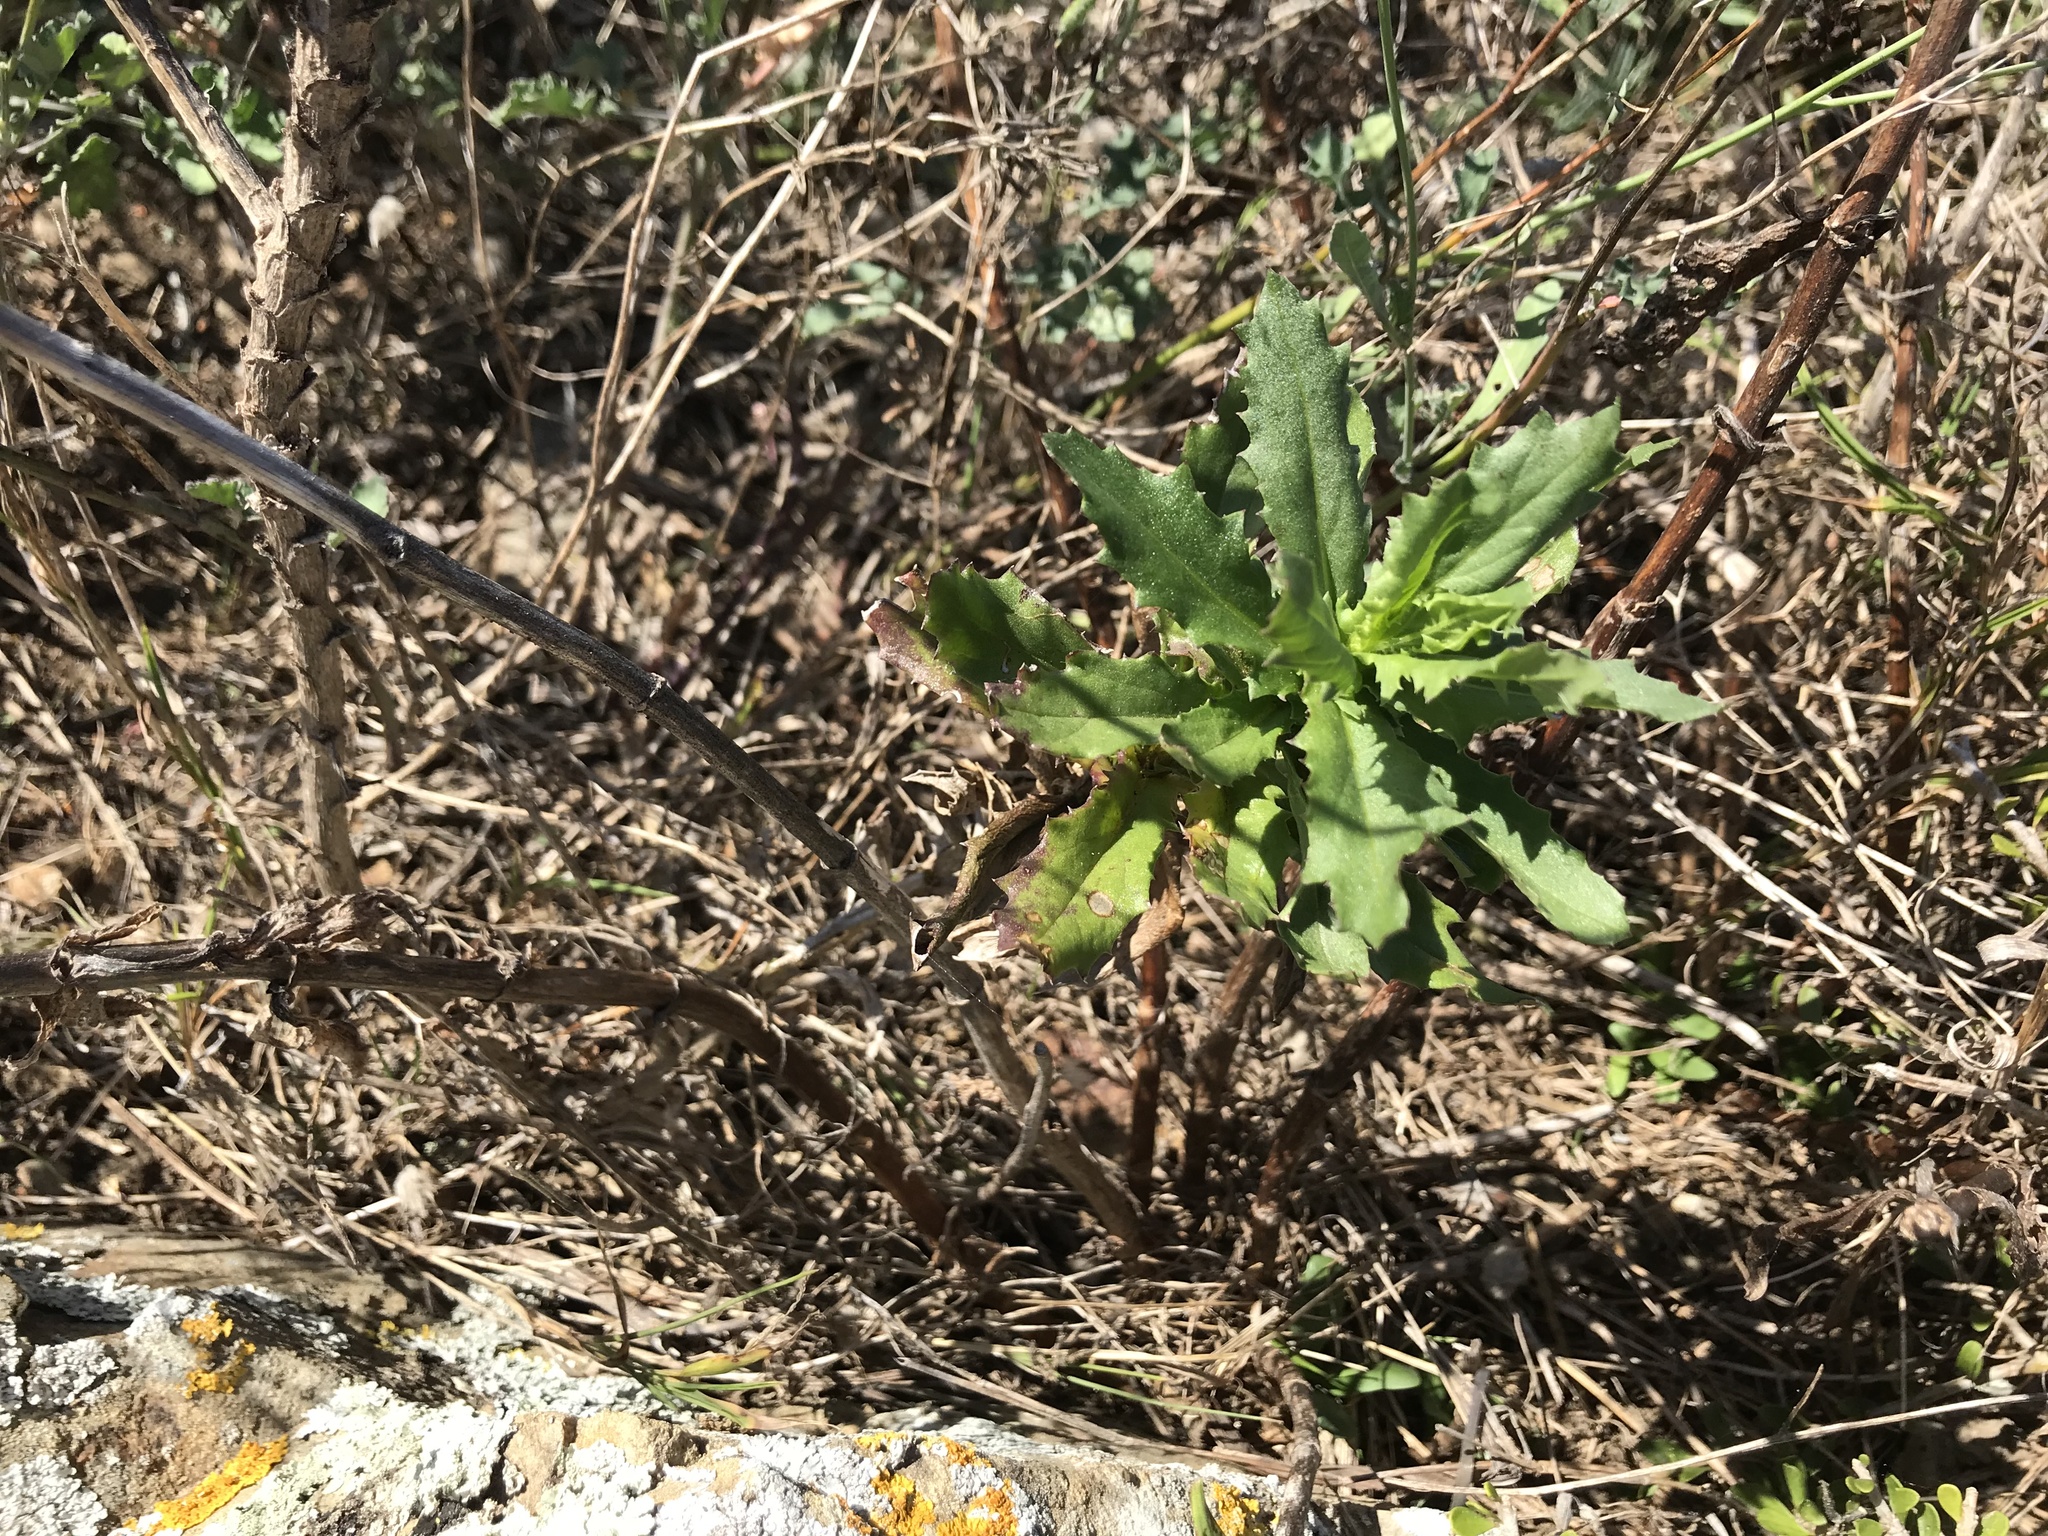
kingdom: Plantae
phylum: Tracheophyta
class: Magnoliopsida
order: Asterales
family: Asteraceae
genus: Senecio
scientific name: Senecio glastifolius
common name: Woad-leaved ragwort
